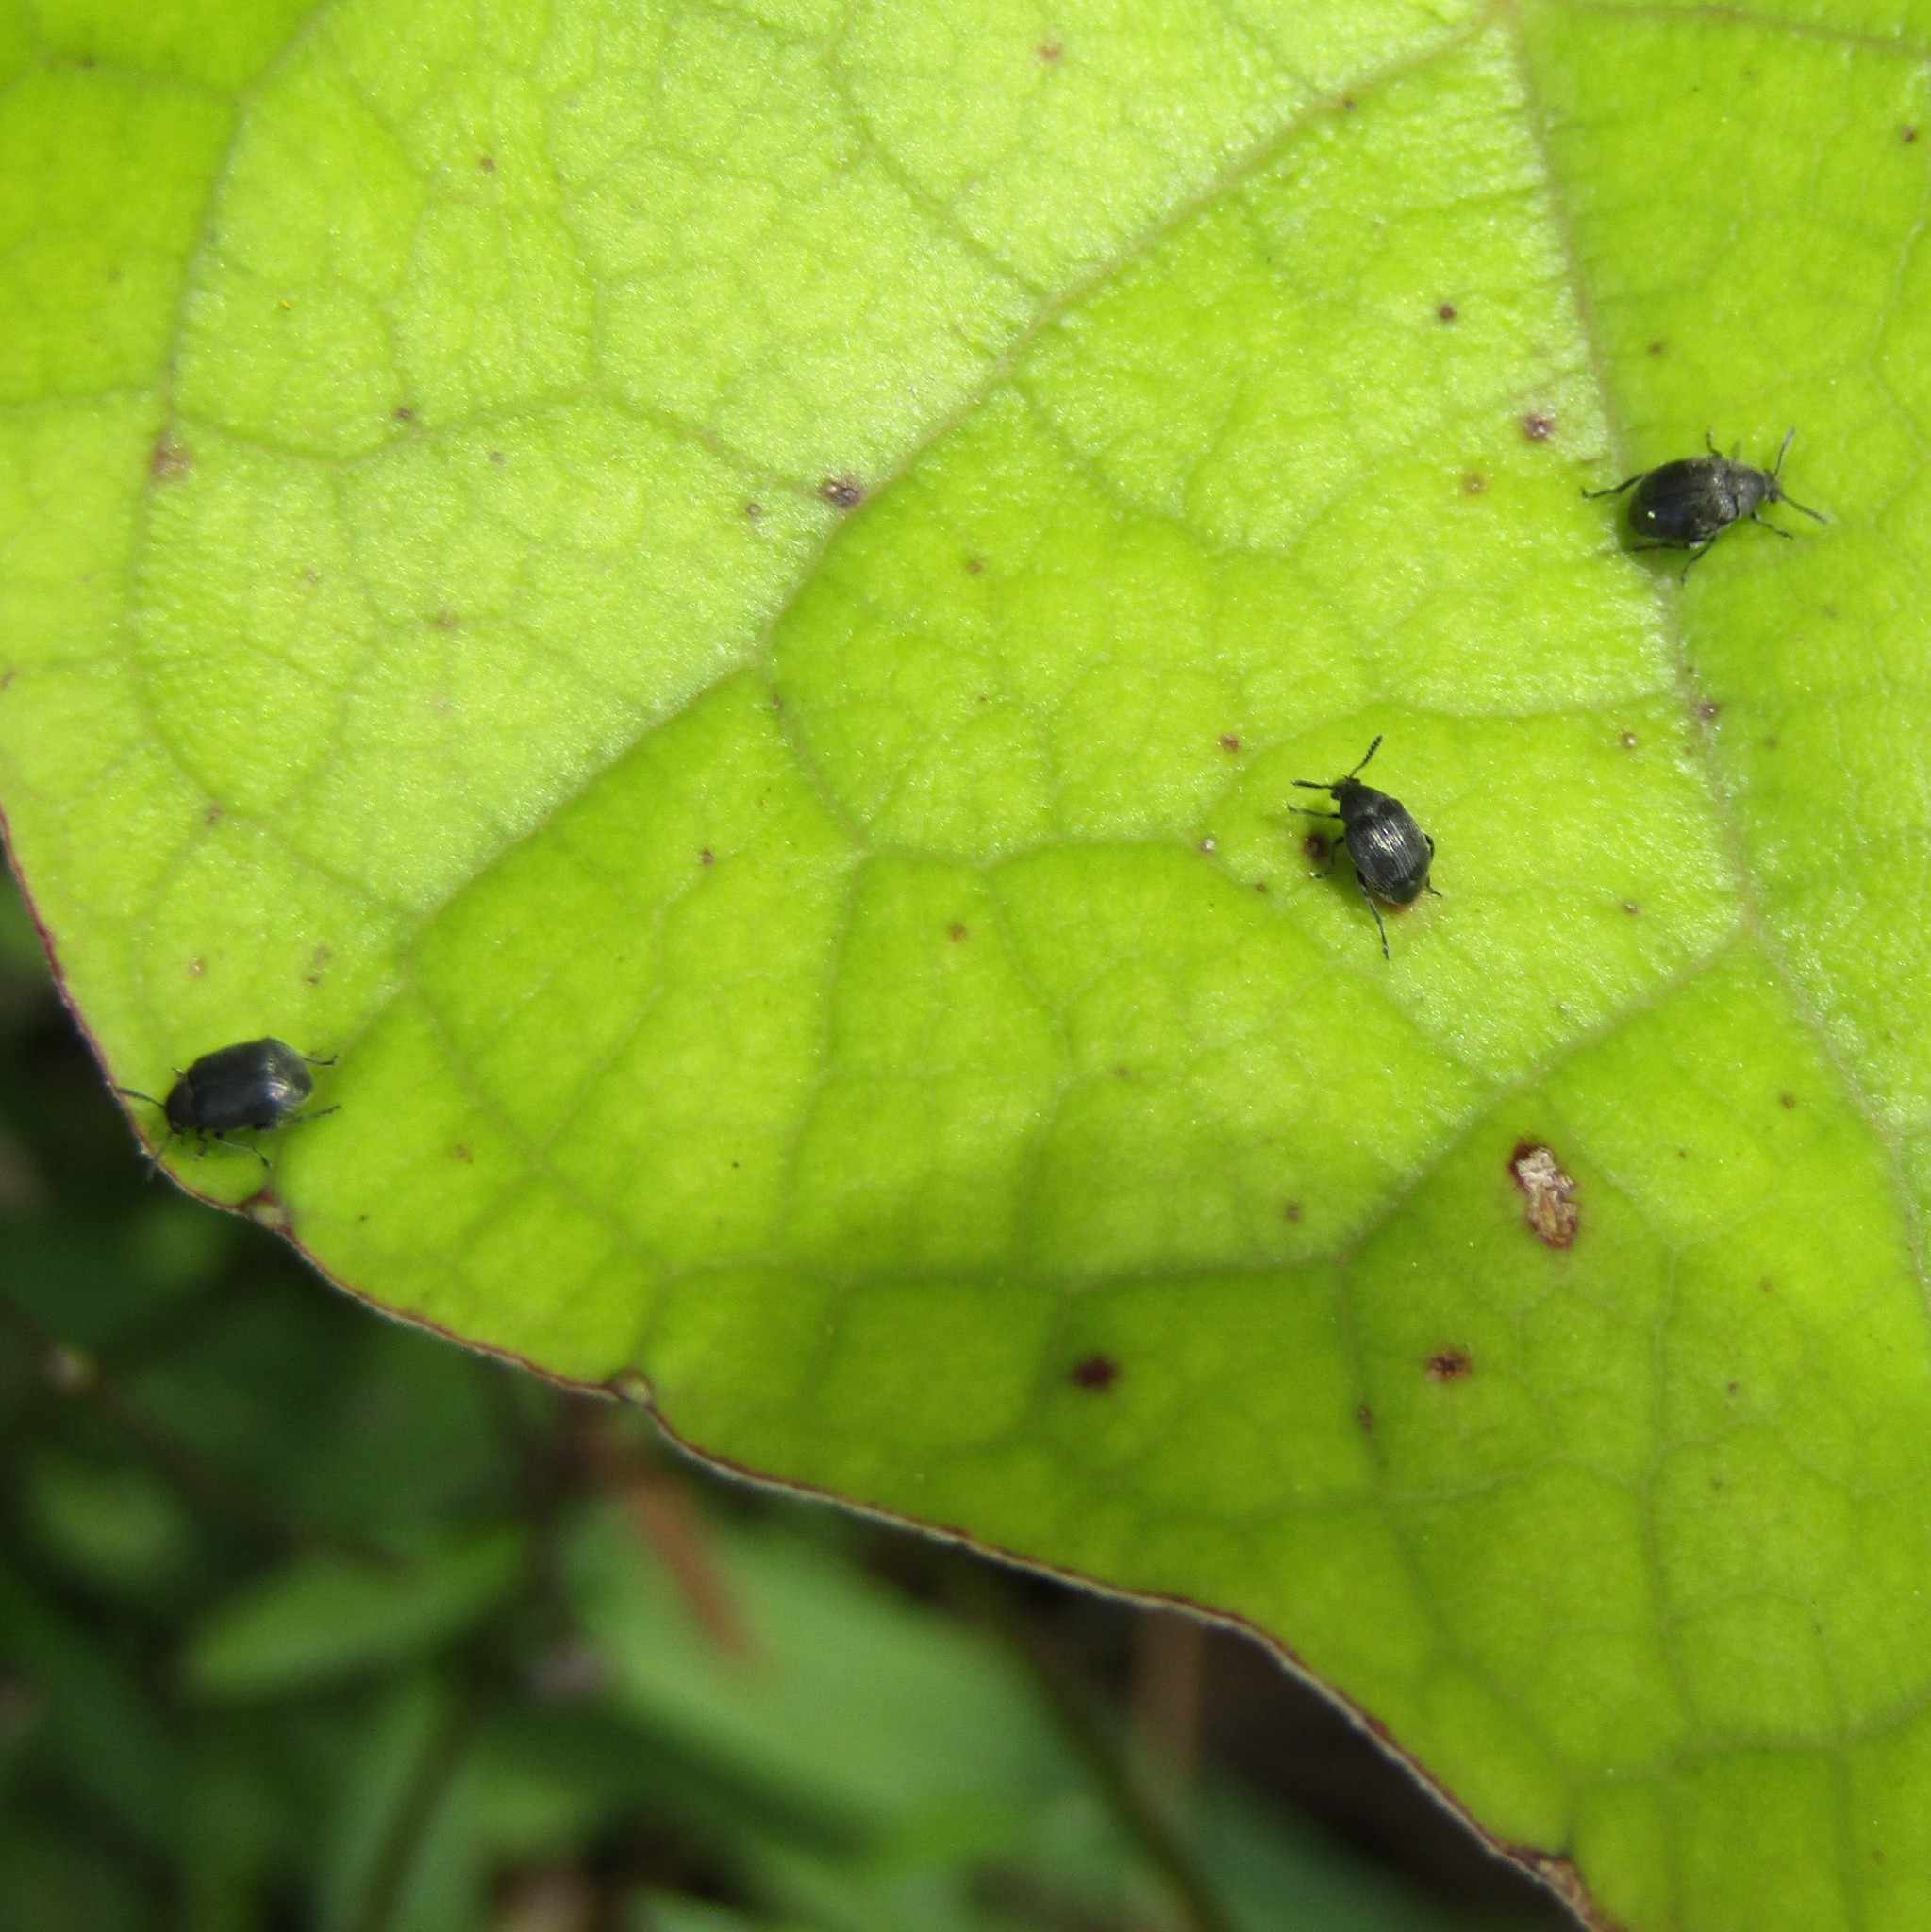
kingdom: Animalia
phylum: Arthropoda
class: Insecta
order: Coleoptera
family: Chrysomelidae
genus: Bruchidius
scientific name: Bruchidius villosus
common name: Scotch broom bruchid
